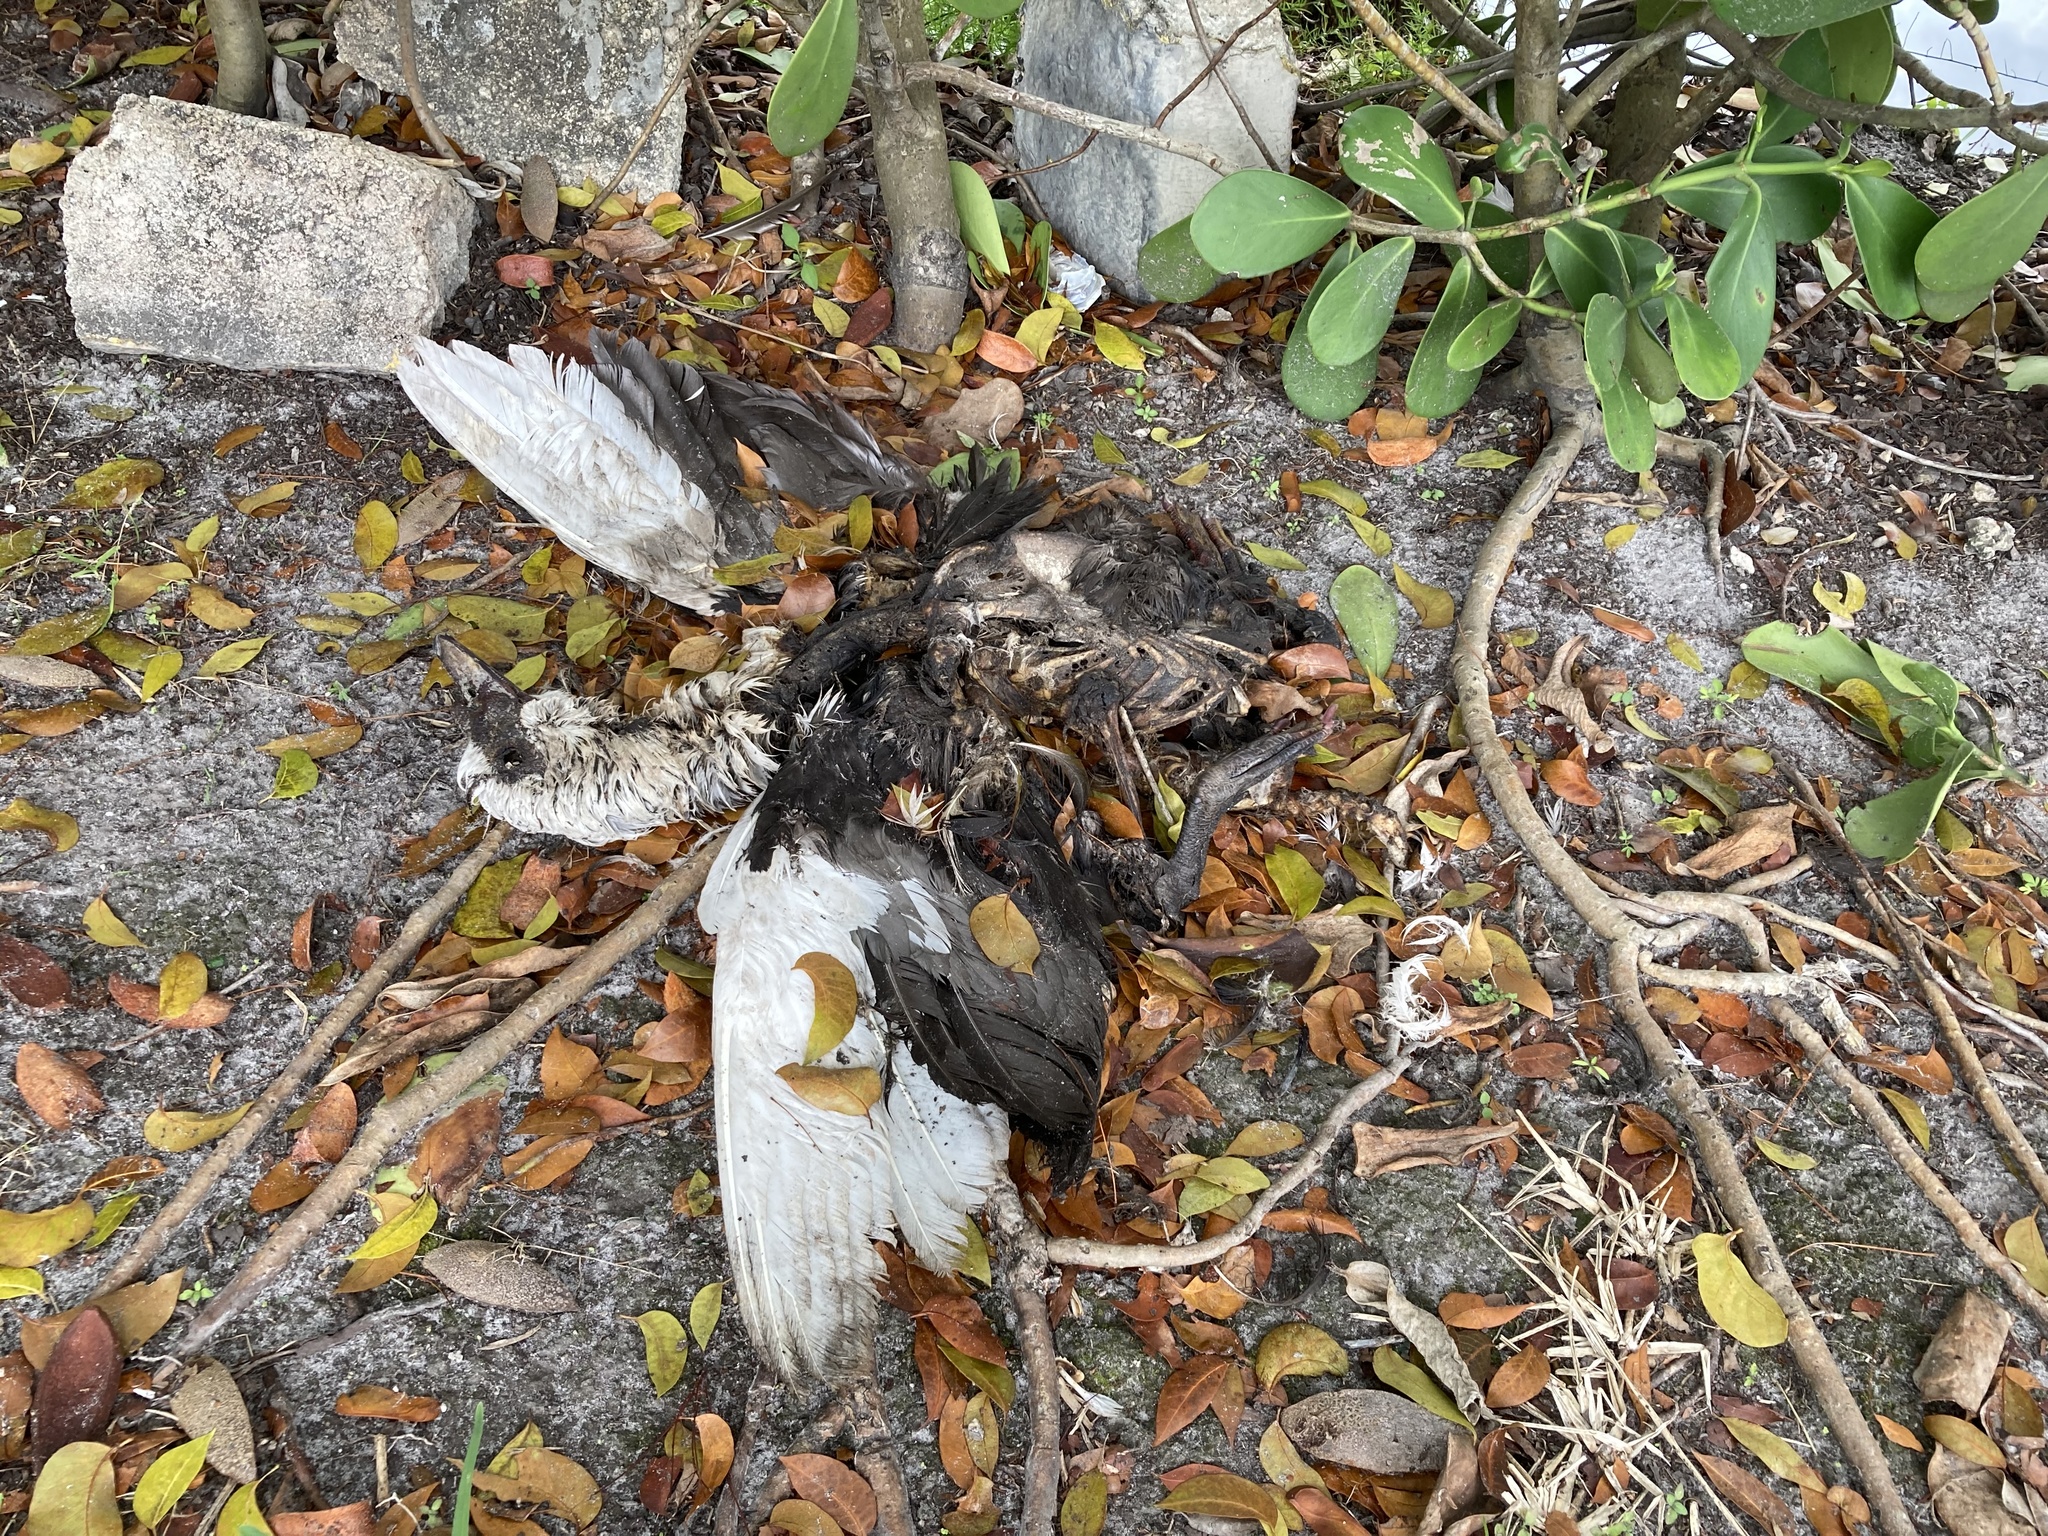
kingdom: Animalia
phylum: Chordata
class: Aves
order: Anseriformes
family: Anatidae
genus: Cairina
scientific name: Cairina moschata
